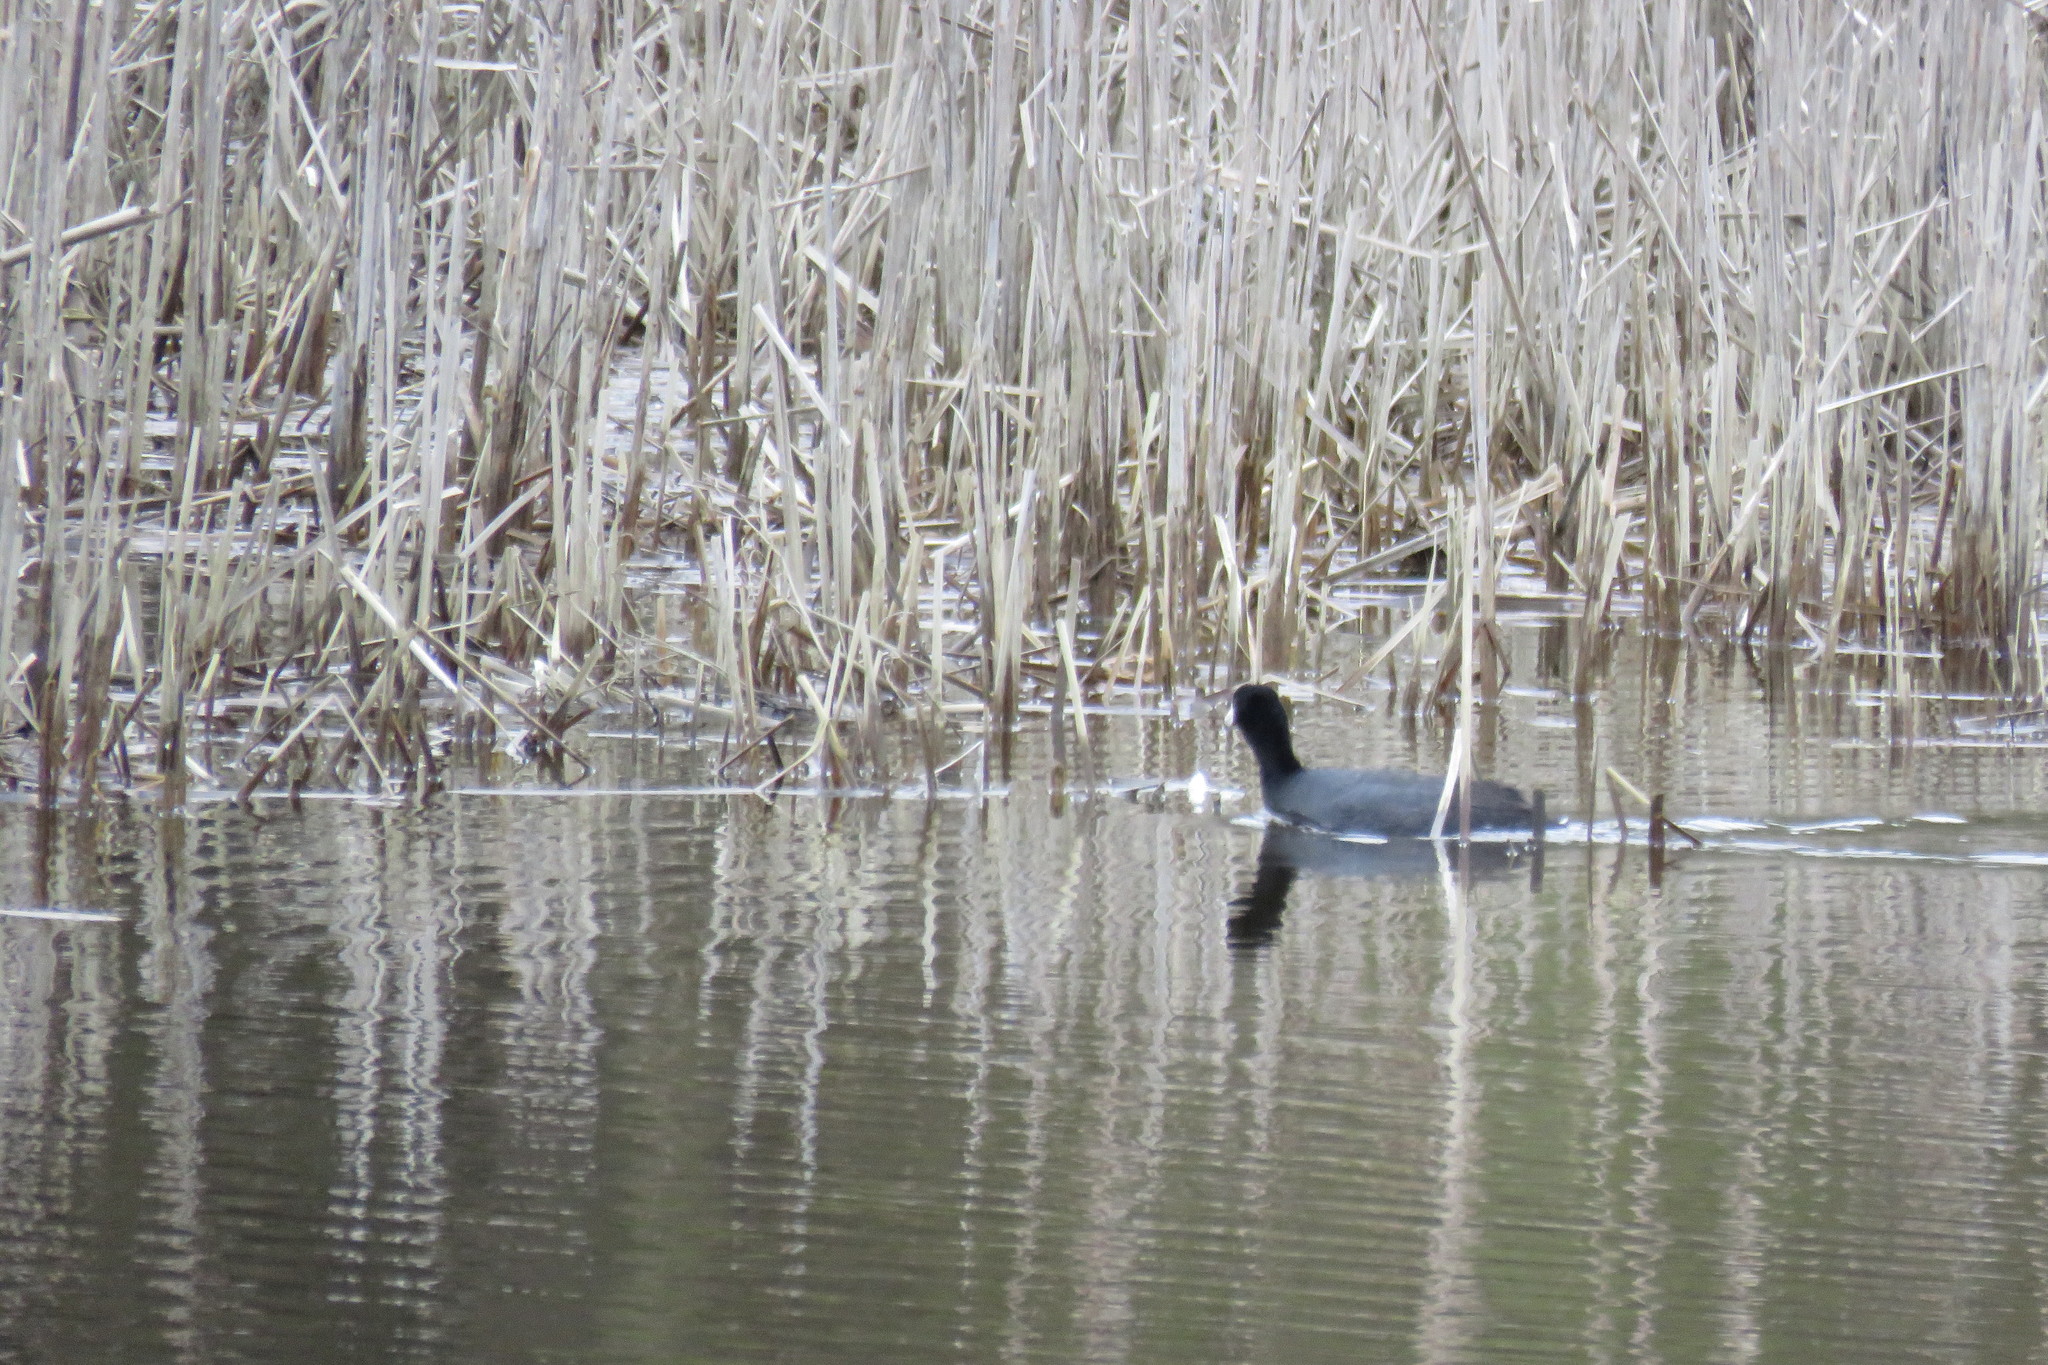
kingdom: Animalia
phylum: Chordata
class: Aves
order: Gruiformes
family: Rallidae
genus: Fulica
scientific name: Fulica americana
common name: American coot
